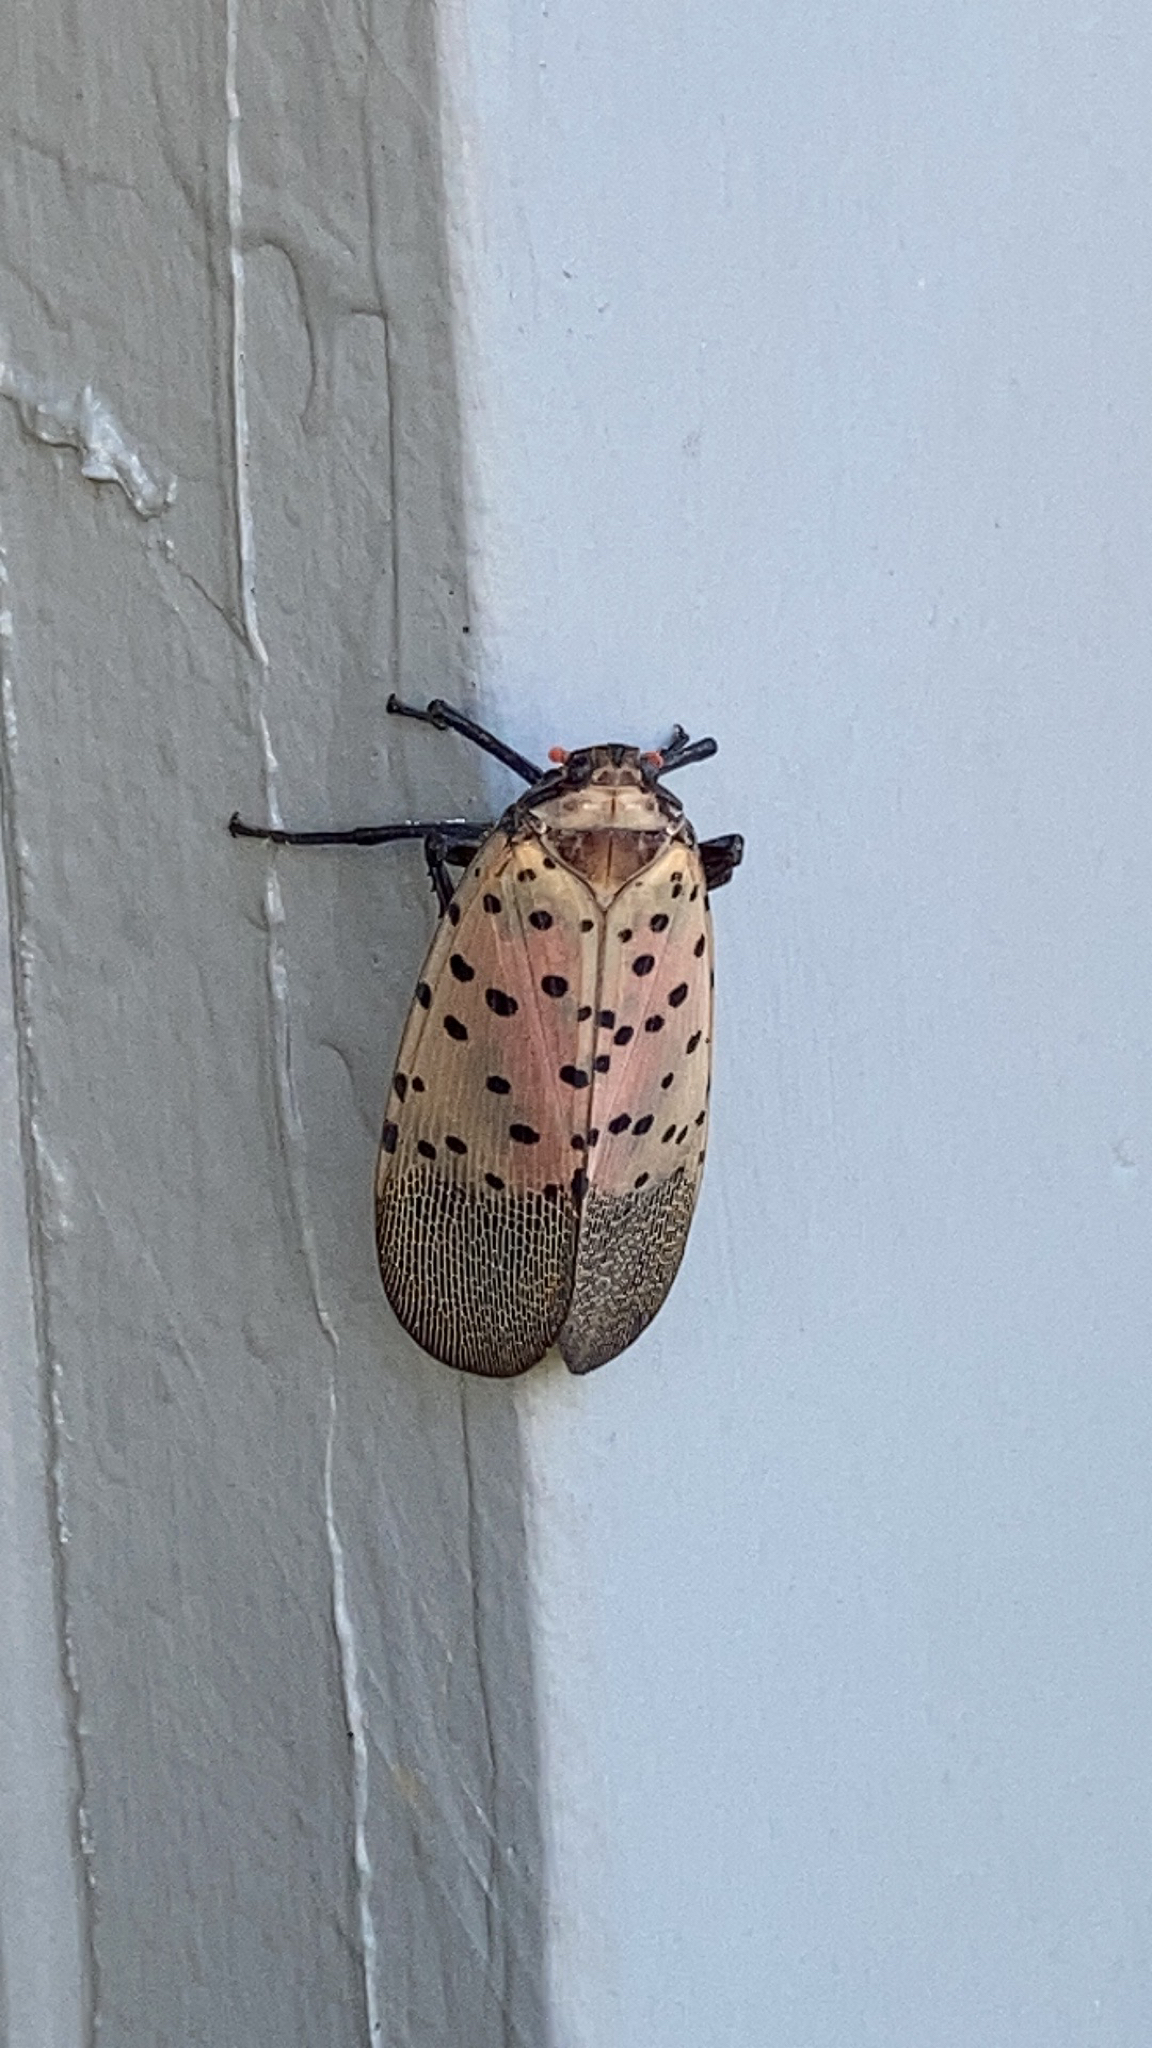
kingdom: Animalia
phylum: Arthropoda
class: Insecta
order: Hemiptera
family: Fulgoridae
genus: Lycorma
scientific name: Lycorma delicatula
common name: Spotted lanternfly
